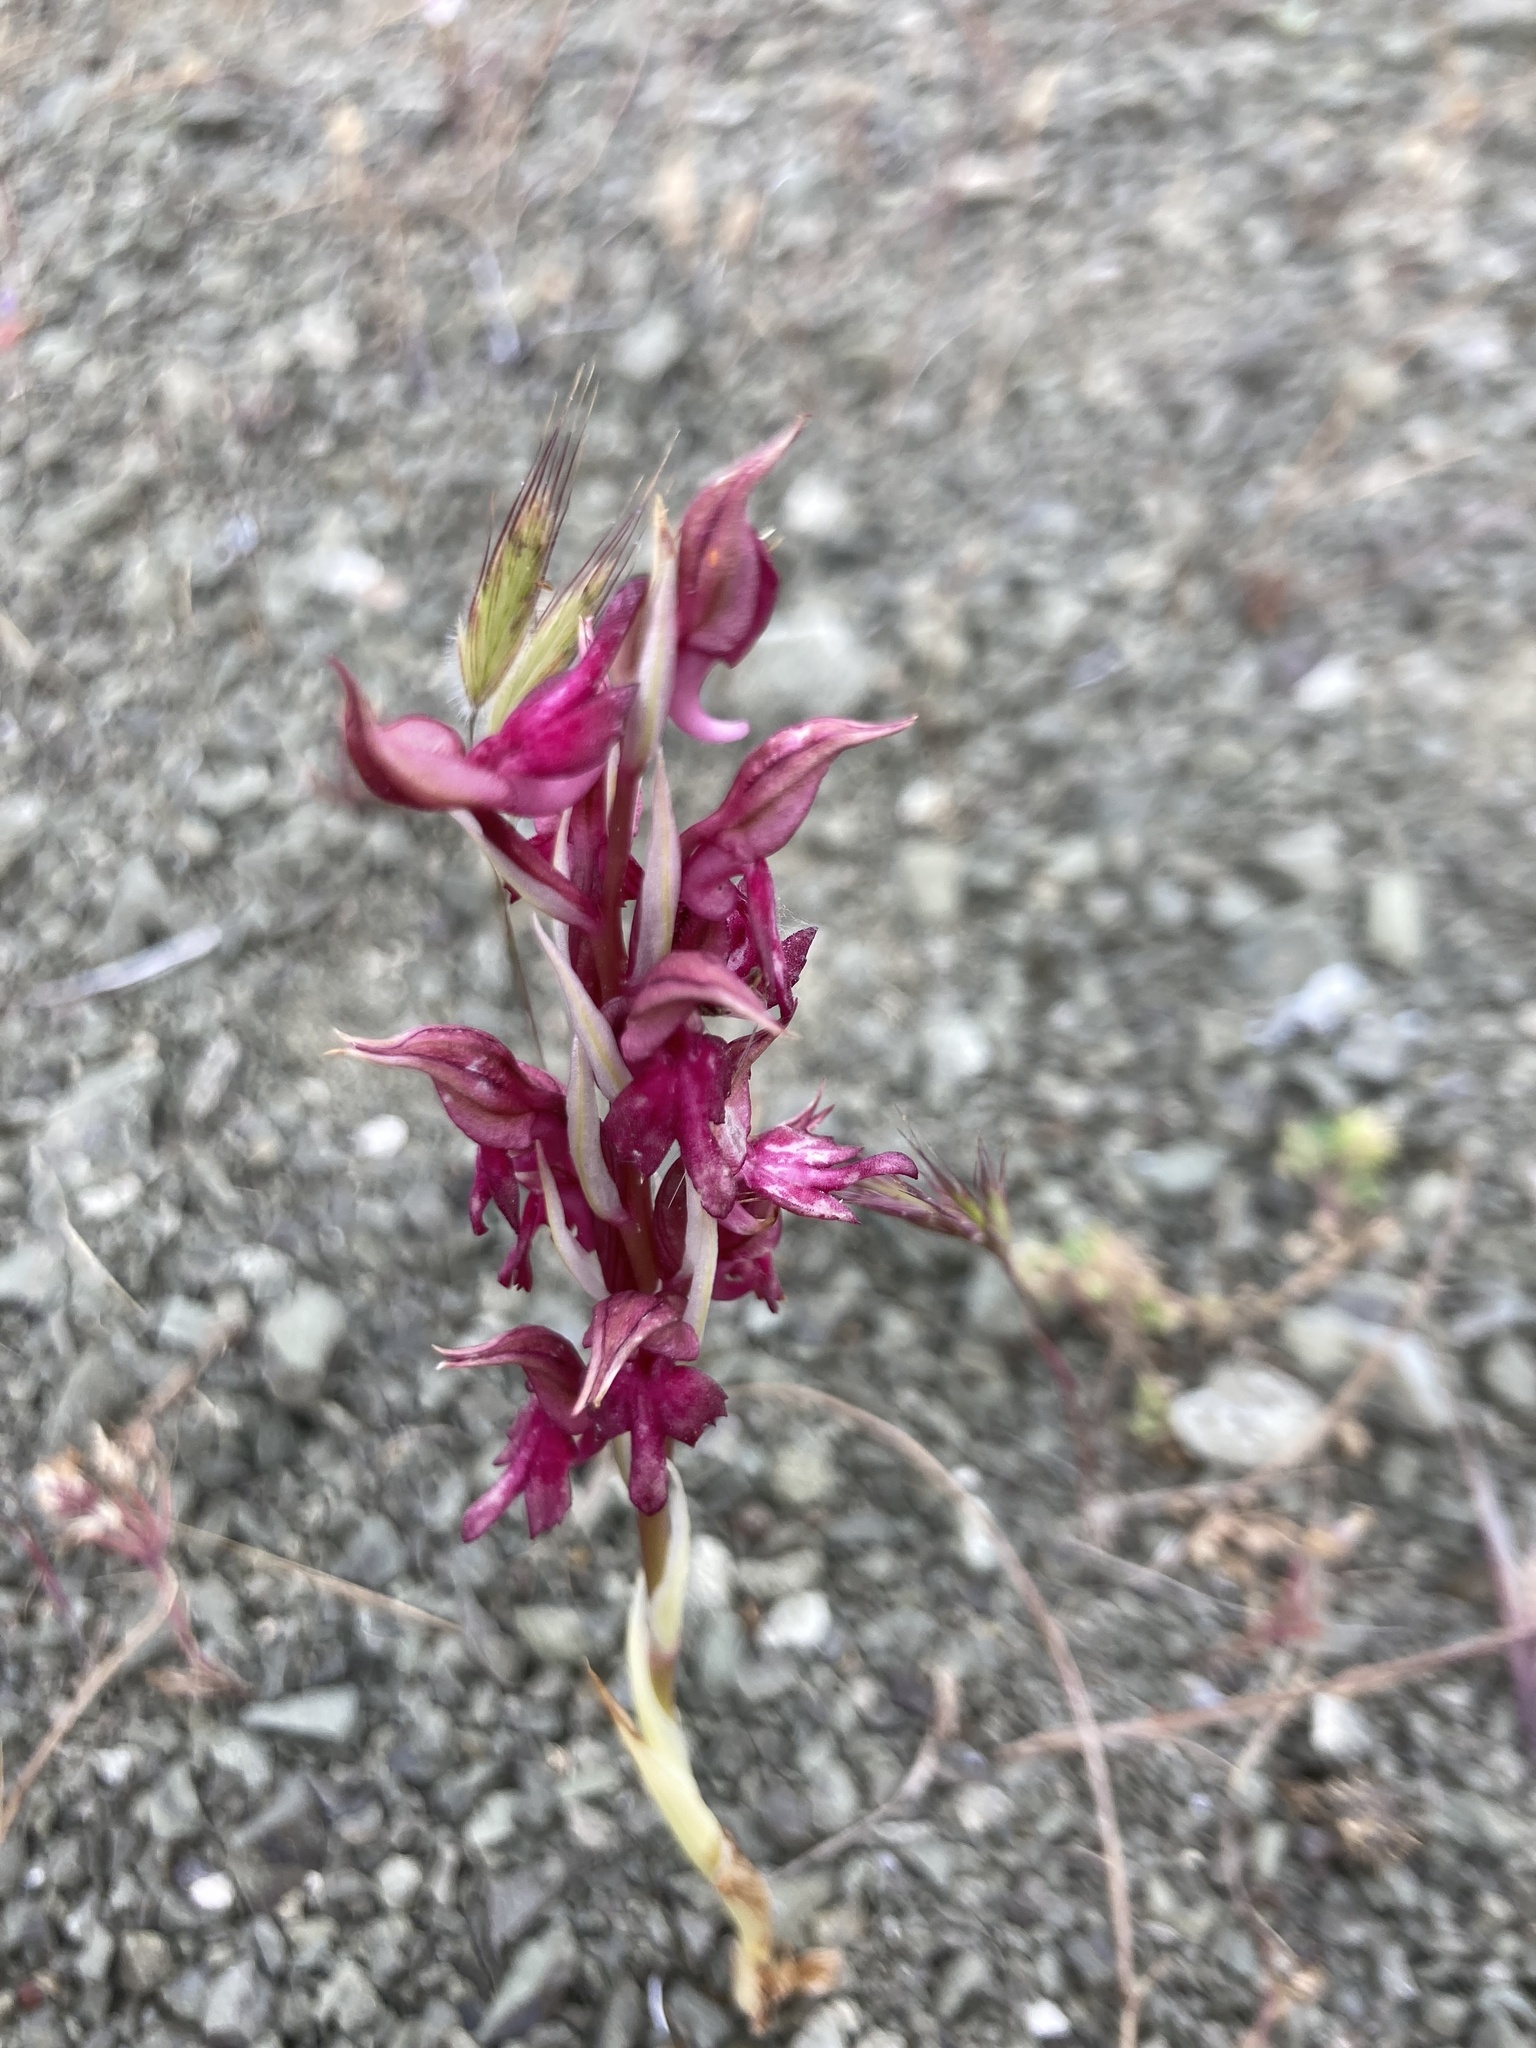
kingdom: Plantae
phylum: Tracheophyta
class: Liliopsida
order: Asparagales
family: Orchidaceae
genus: Anacamptis
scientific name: Anacamptis
